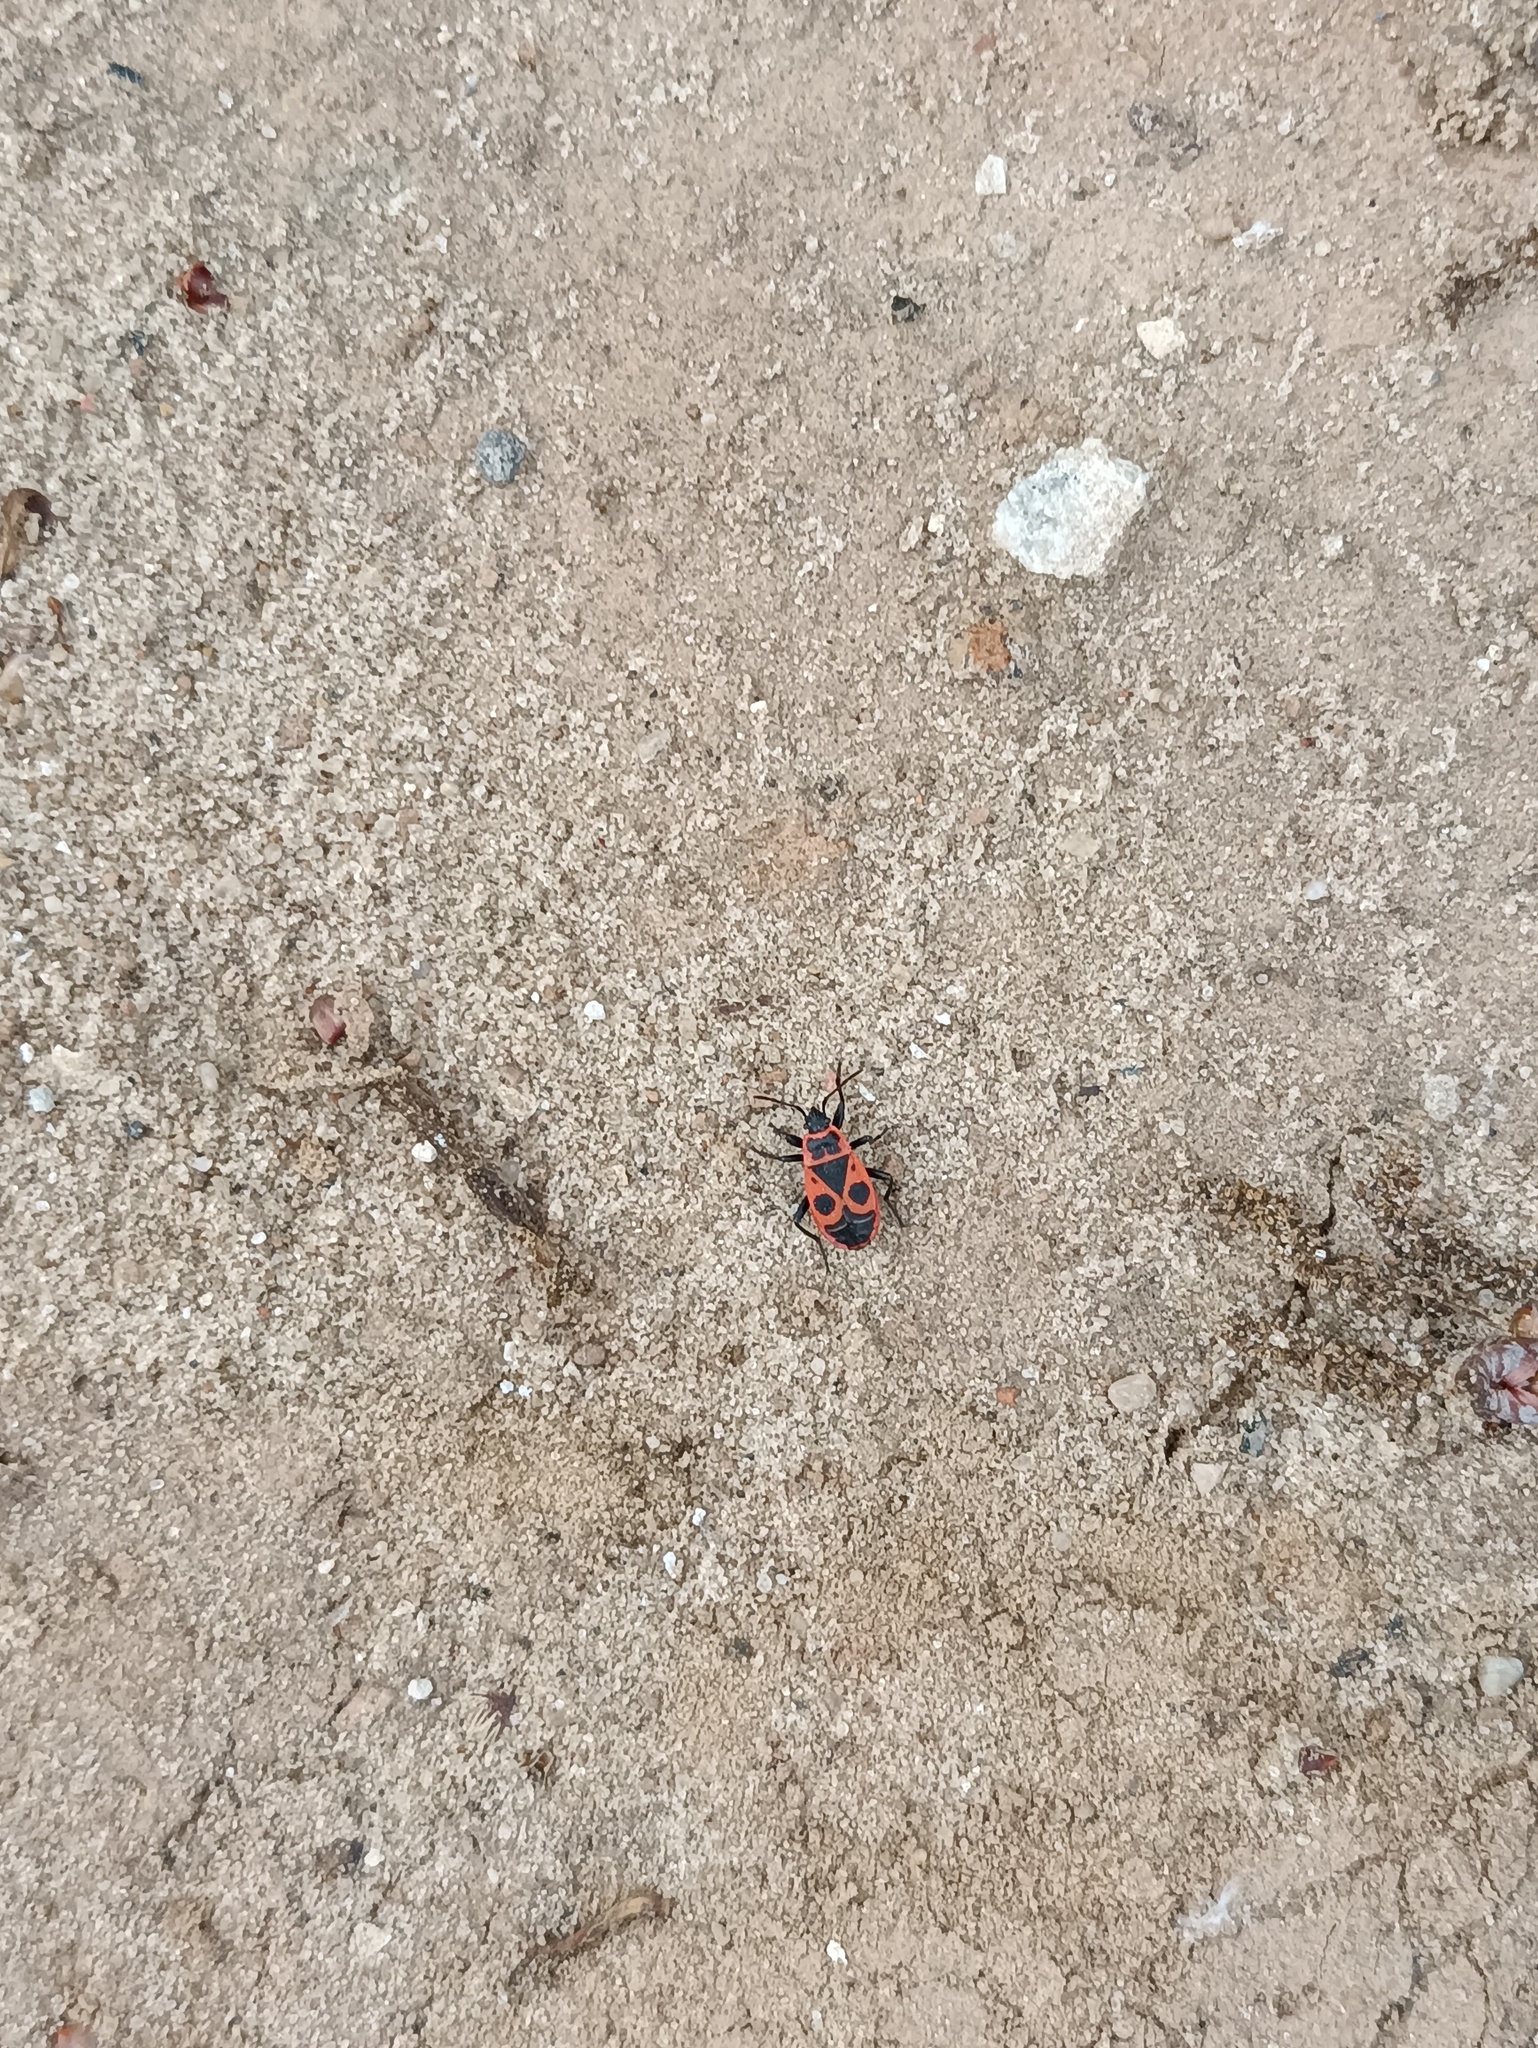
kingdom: Animalia
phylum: Arthropoda
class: Insecta
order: Hemiptera
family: Pyrrhocoridae
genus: Pyrrhocoris
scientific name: Pyrrhocoris apterus
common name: Firebug
